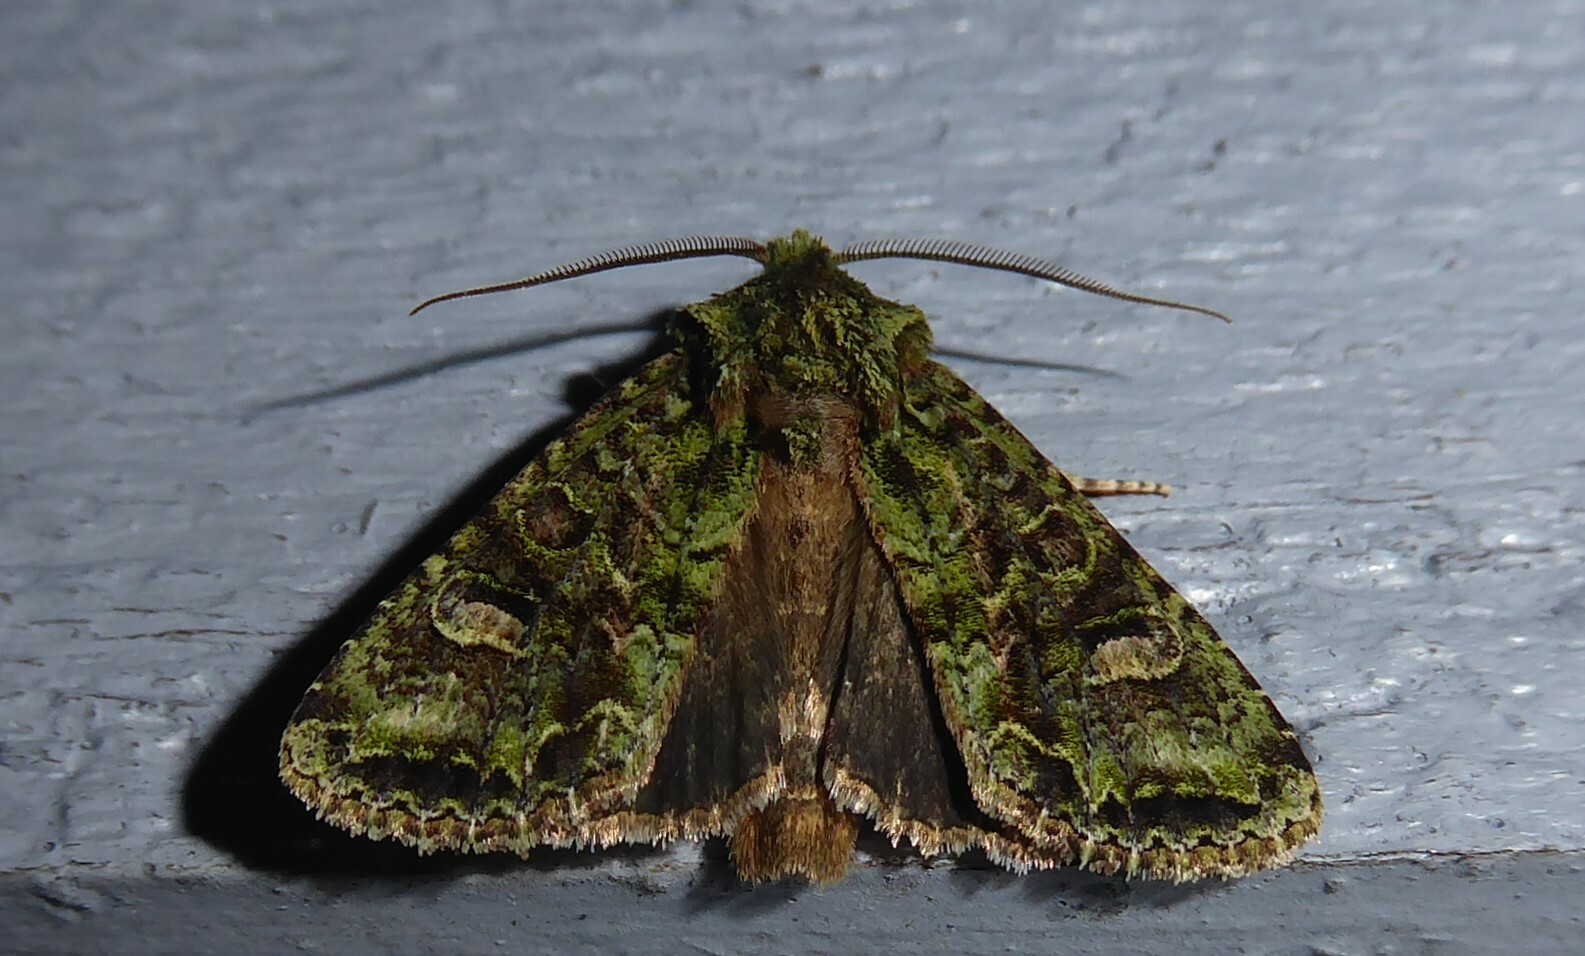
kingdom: Animalia
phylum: Arthropoda
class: Insecta
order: Lepidoptera
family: Noctuidae
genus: Ichneutica
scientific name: Ichneutica
